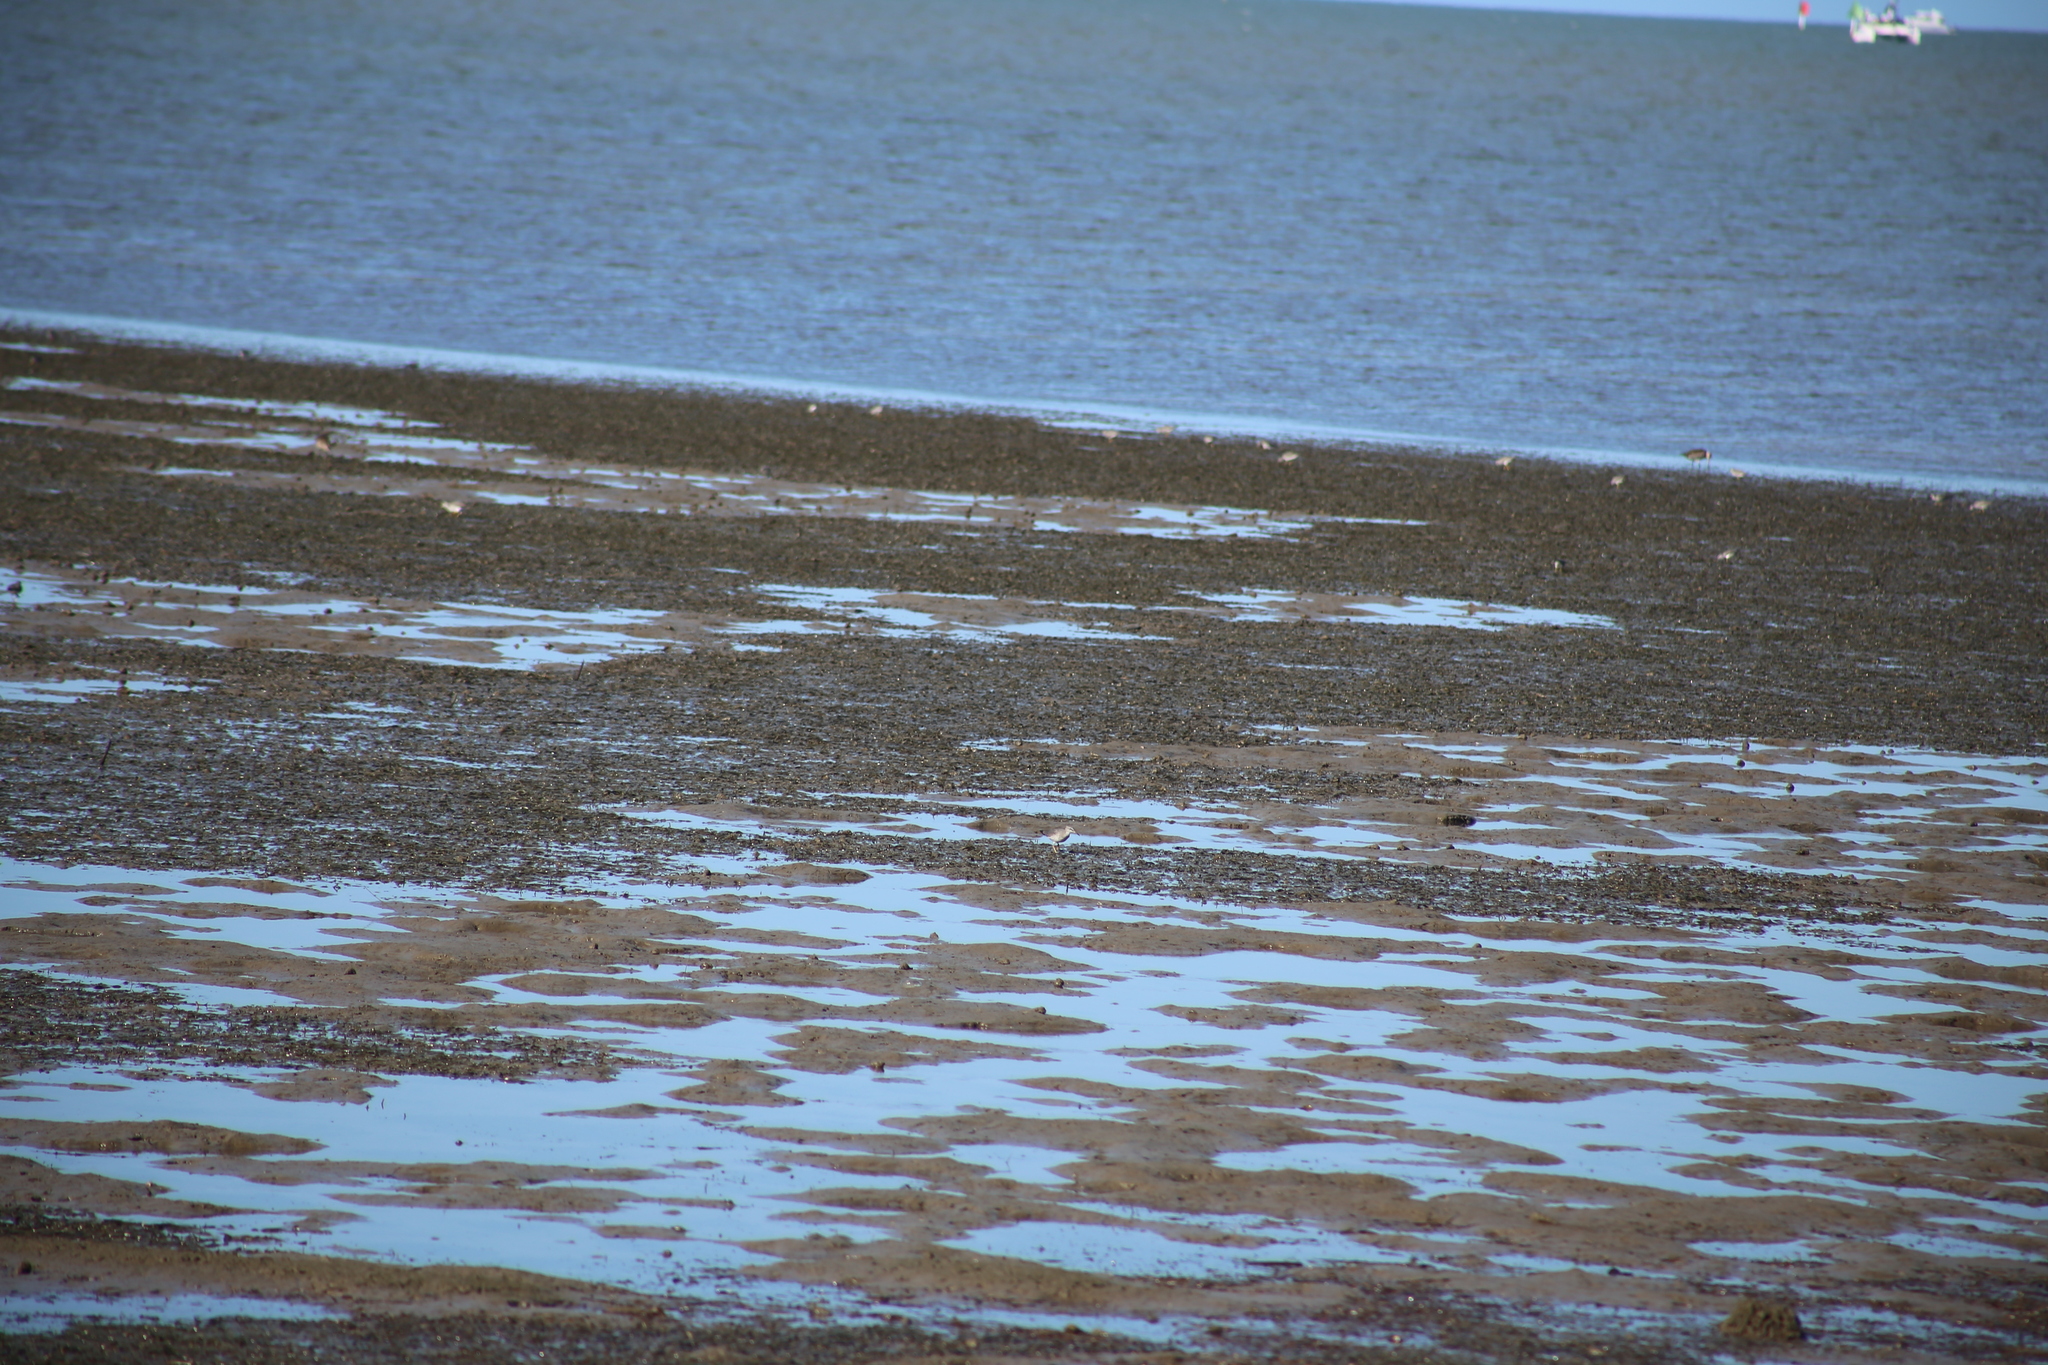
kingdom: Animalia
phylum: Chordata
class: Aves
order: Charadriiformes
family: Scolopacidae
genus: Tringa
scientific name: Tringa brevipes
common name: Grey-tailed tattler
